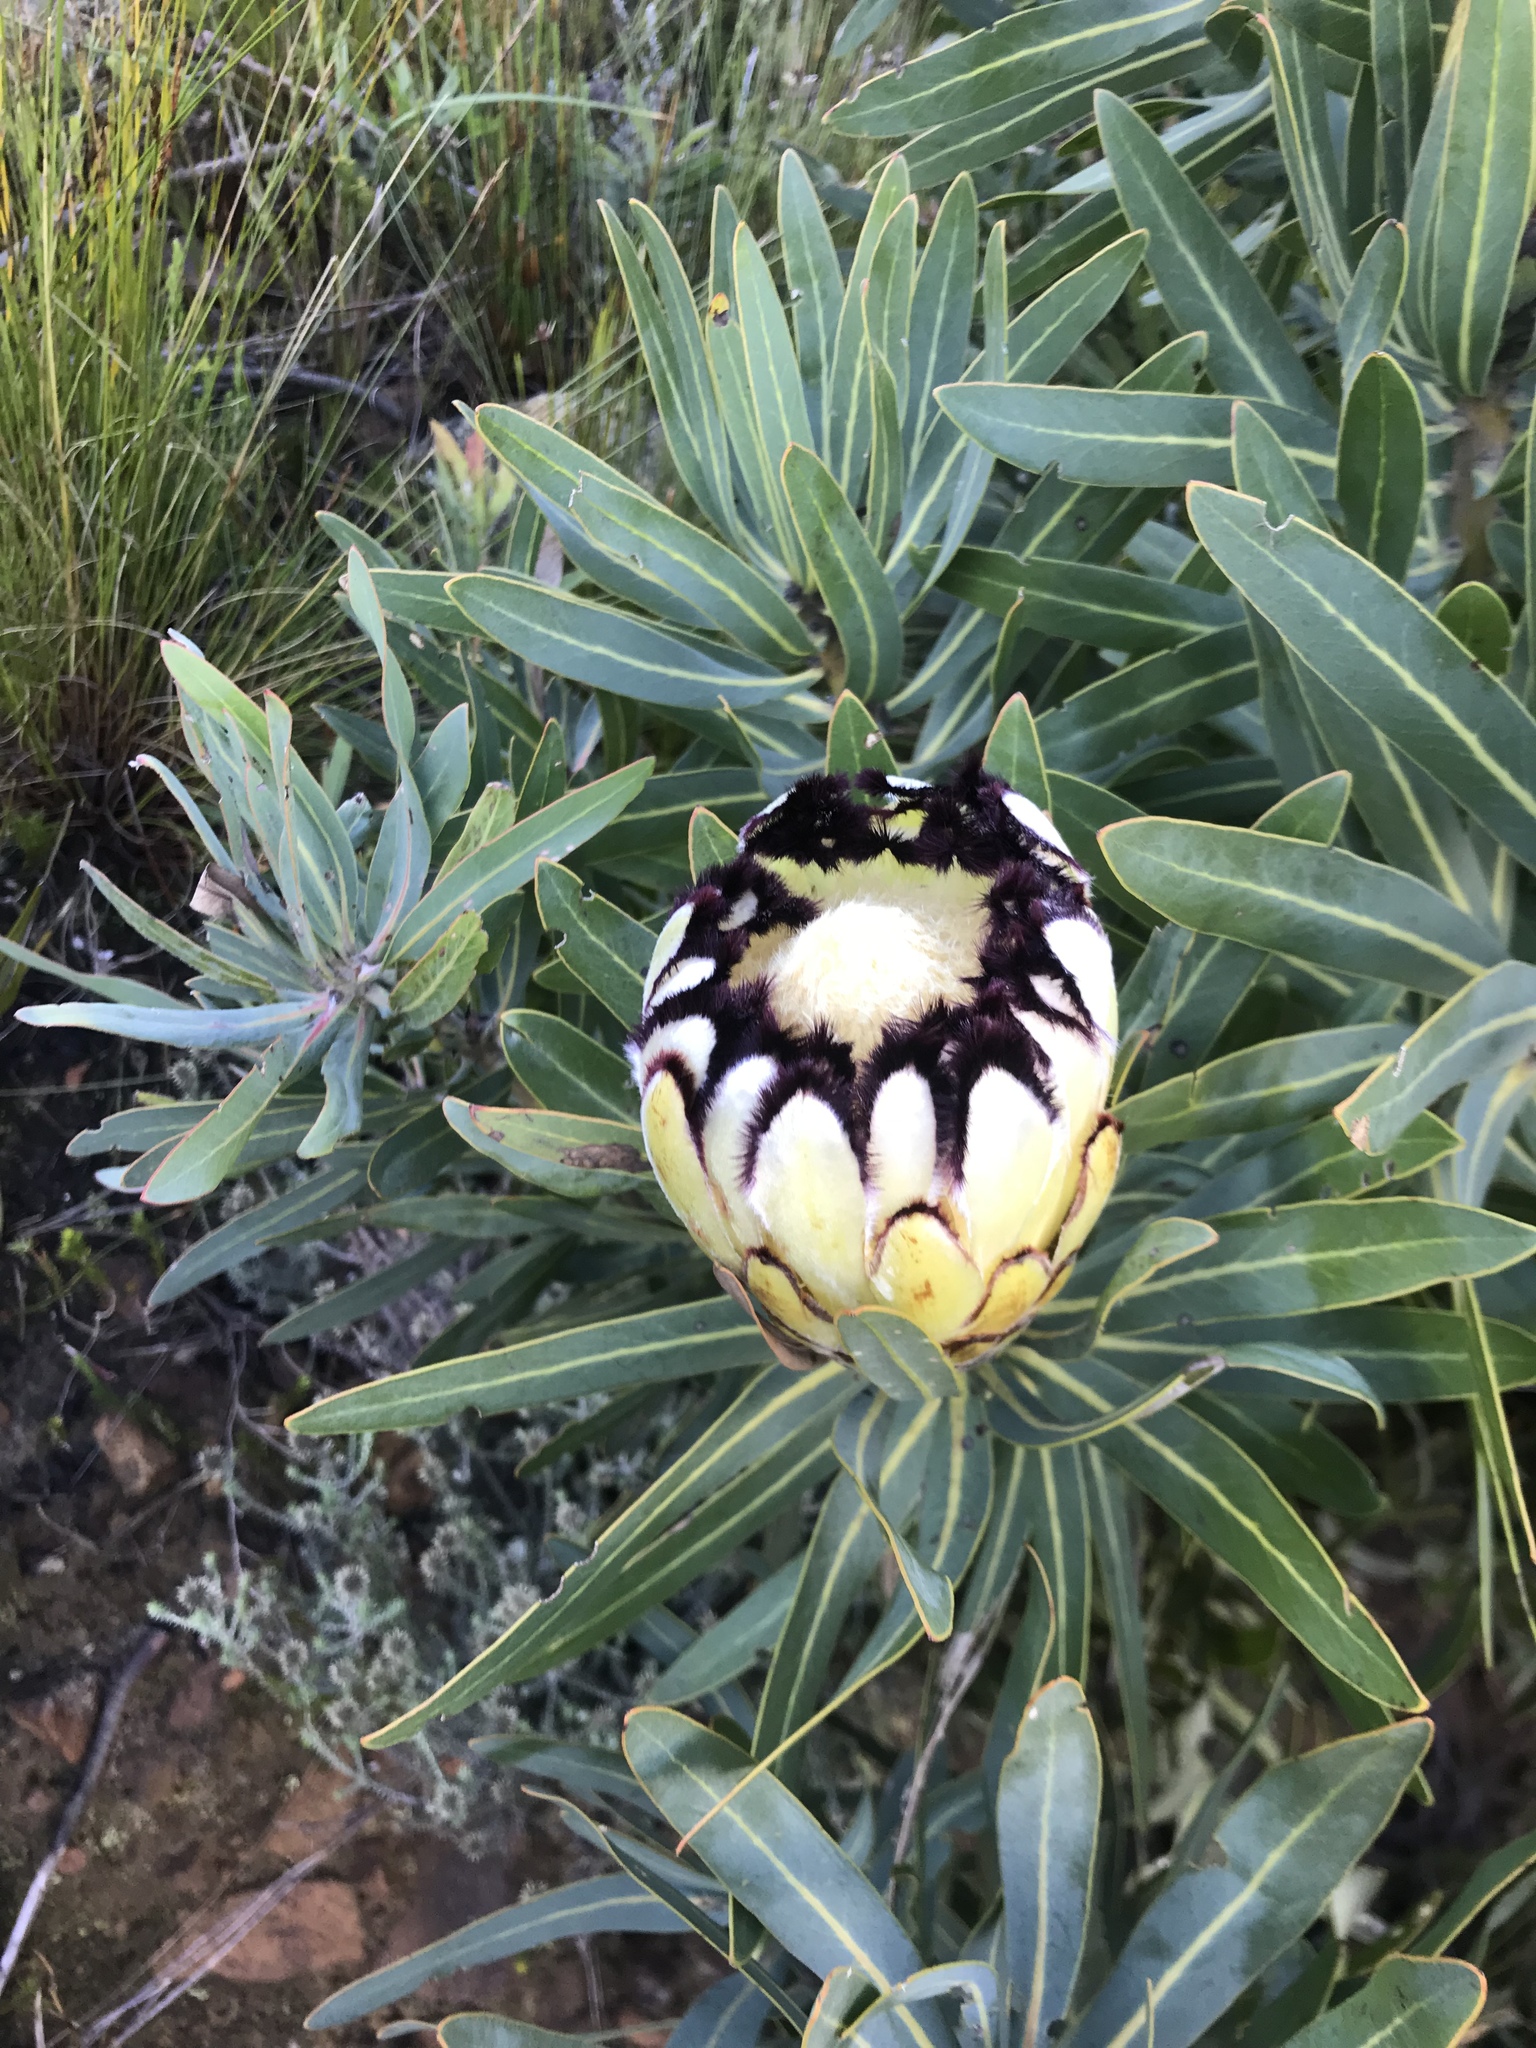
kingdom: Plantae
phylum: Tracheophyta
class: Magnoliopsida
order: Proteales
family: Proteaceae
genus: Protea
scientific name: Protea neriifolia
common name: Blue sugarbush
